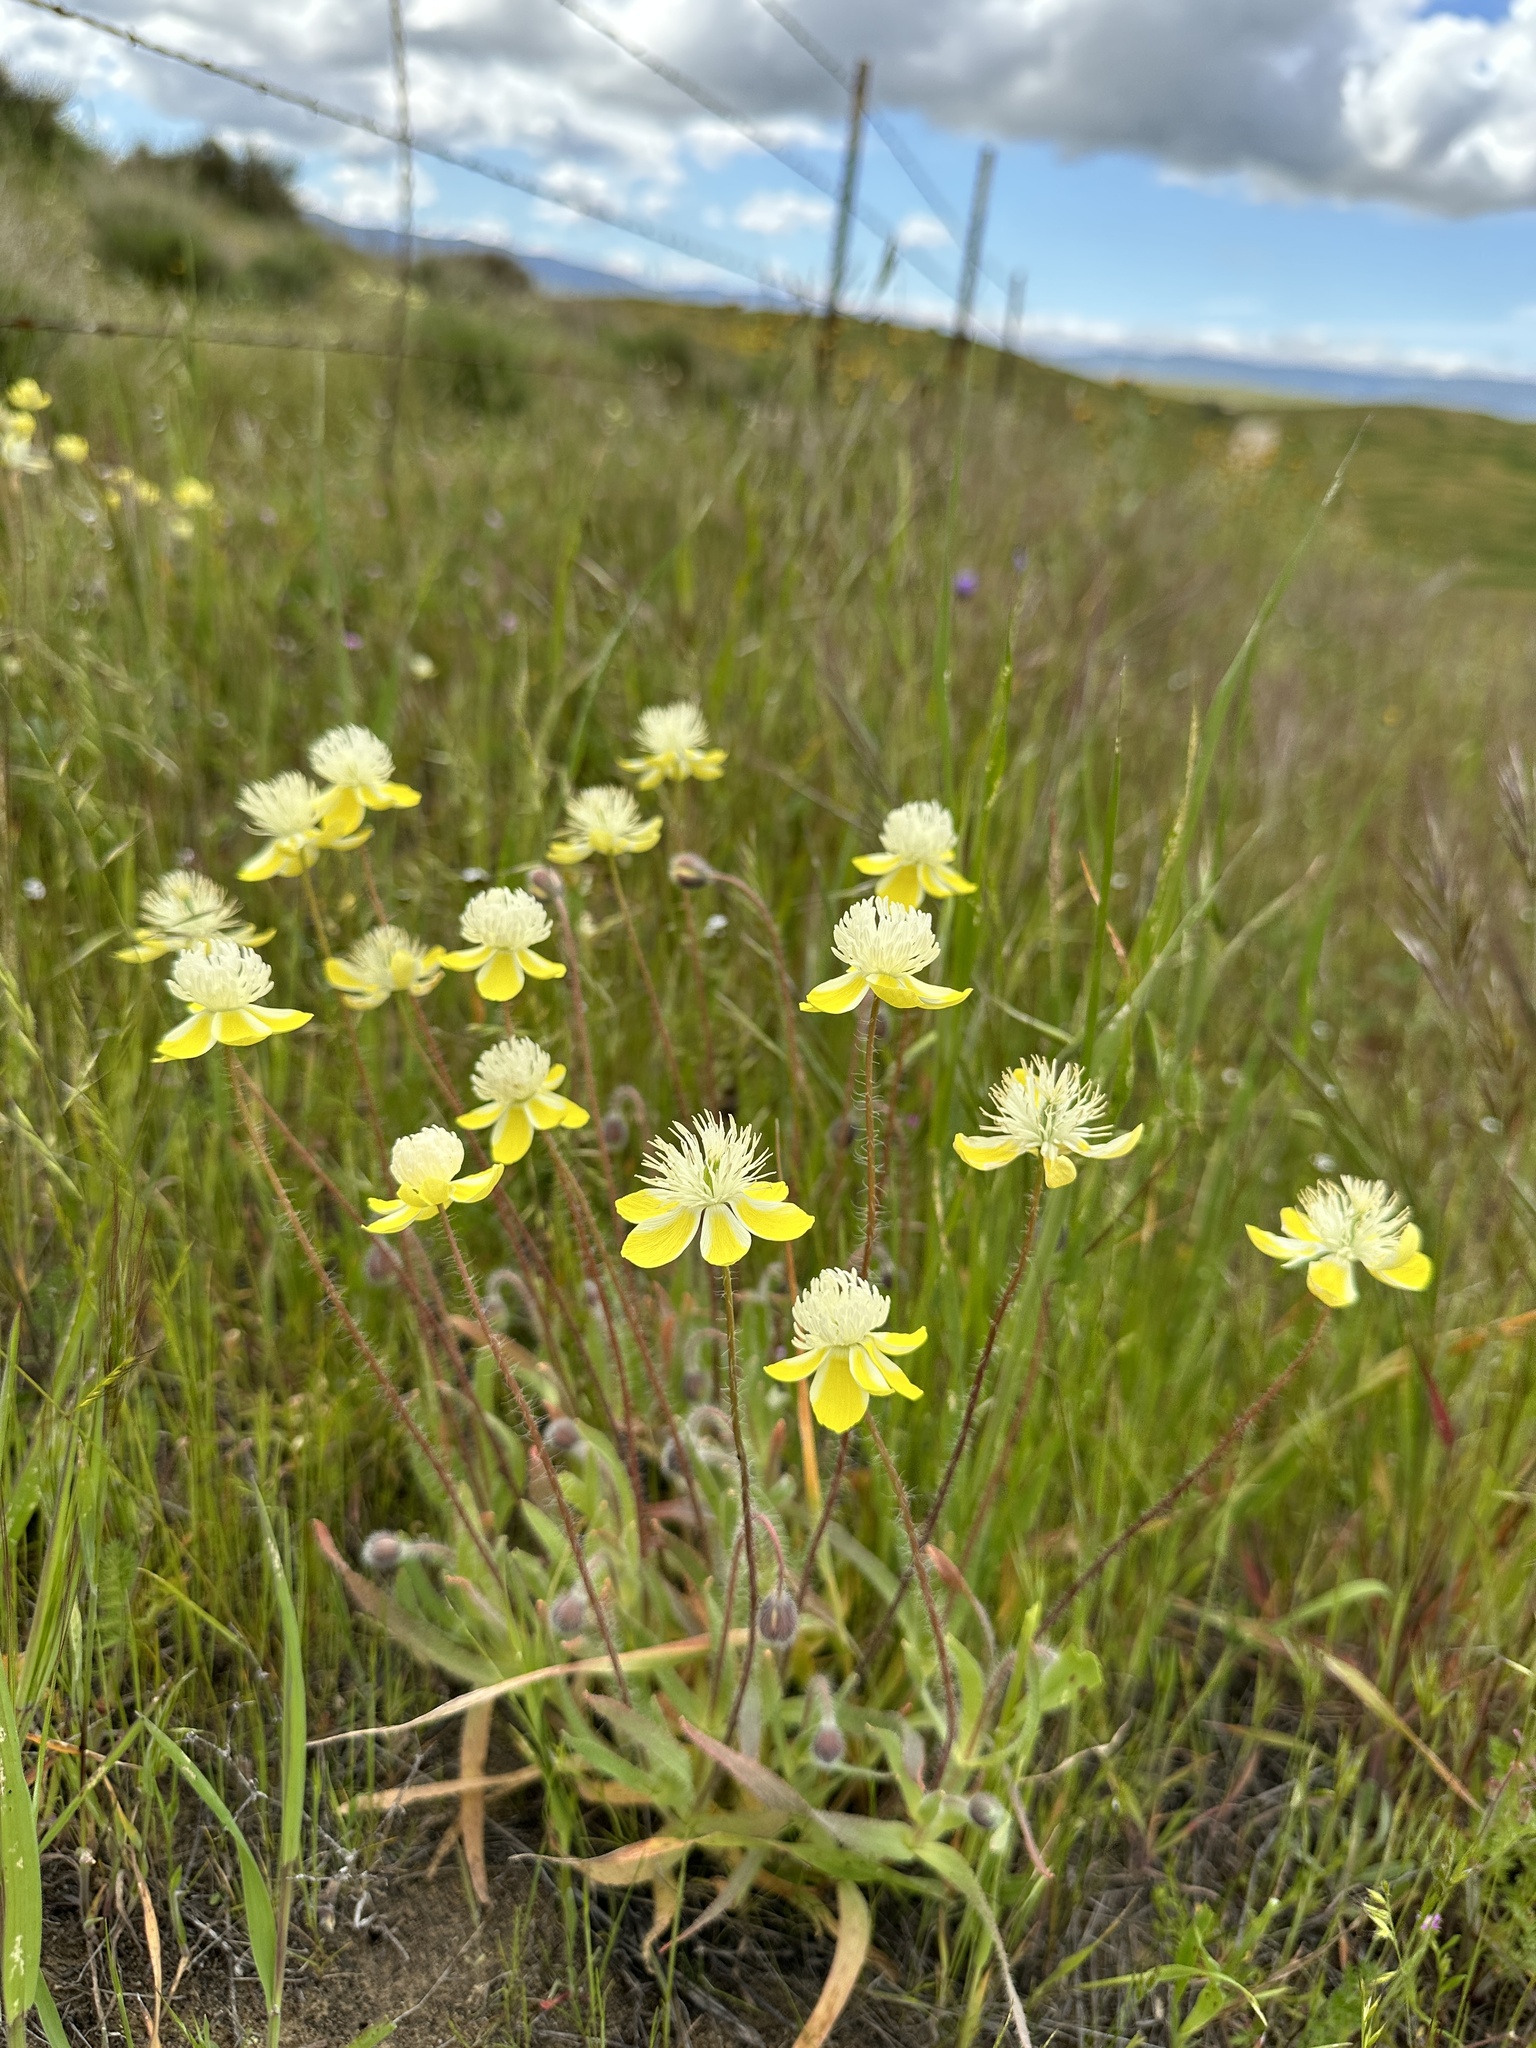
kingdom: Plantae
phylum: Tracheophyta
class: Magnoliopsida
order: Ranunculales
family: Papaveraceae
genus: Platystemon
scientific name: Platystemon californicus
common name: Cream-cups
